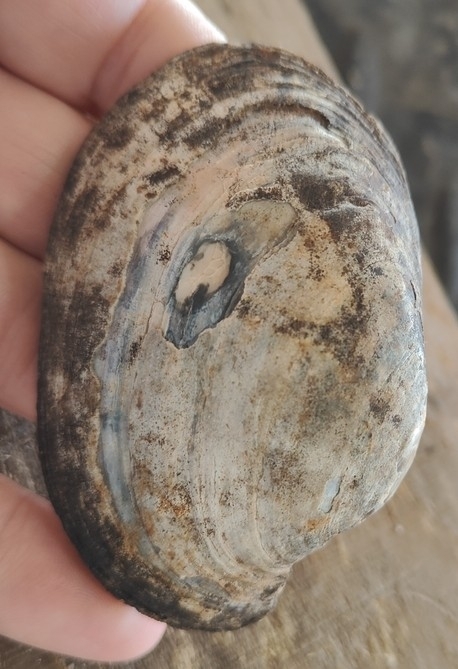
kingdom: Animalia
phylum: Mollusca
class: Bivalvia
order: Unionida
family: Unionidae
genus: Lampsilis
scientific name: Lampsilis cardium
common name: Plain pocketbook
